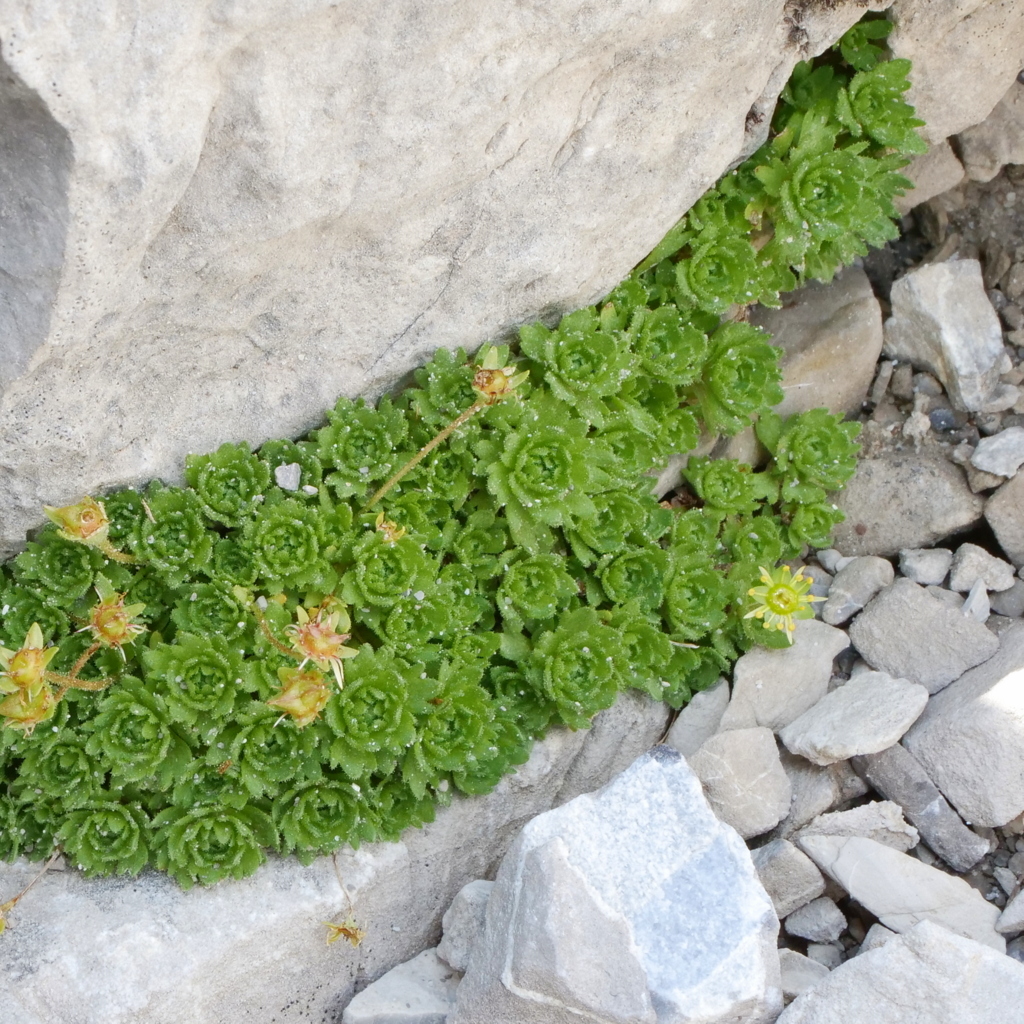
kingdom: Plantae
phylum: Tracheophyta
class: Magnoliopsida
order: Saxifragales
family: Saxifragaceae
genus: Saxifraga
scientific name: Saxifraga aphylla
